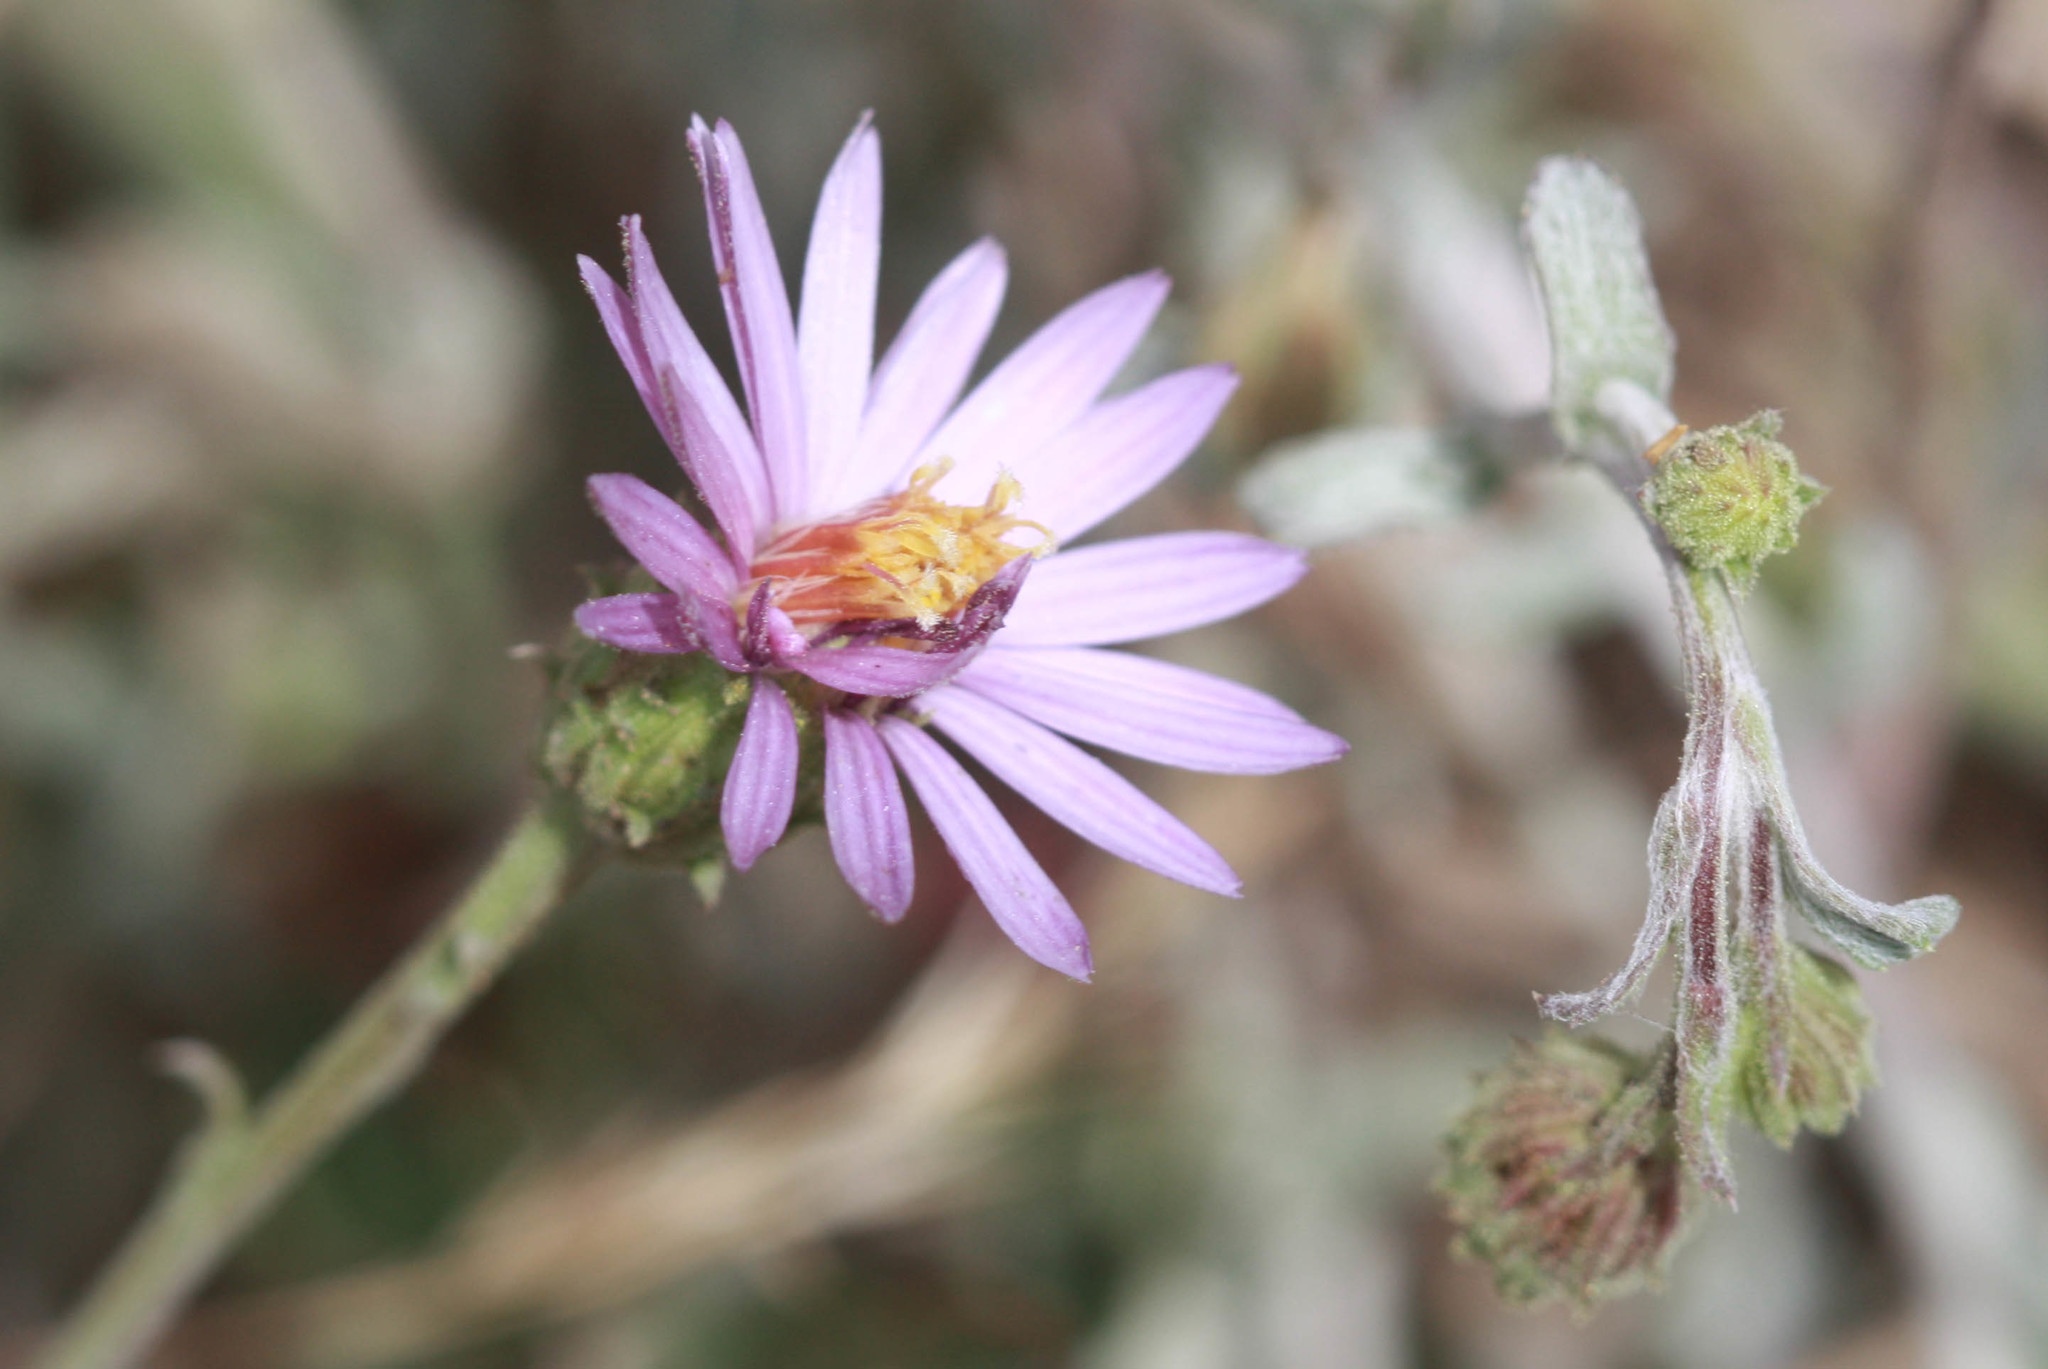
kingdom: Plantae
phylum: Tracheophyta
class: Magnoliopsida
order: Asterales
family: Asteraceae
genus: Corethrogyne
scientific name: Corethrogyne filaginifolia
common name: Sand-aster
